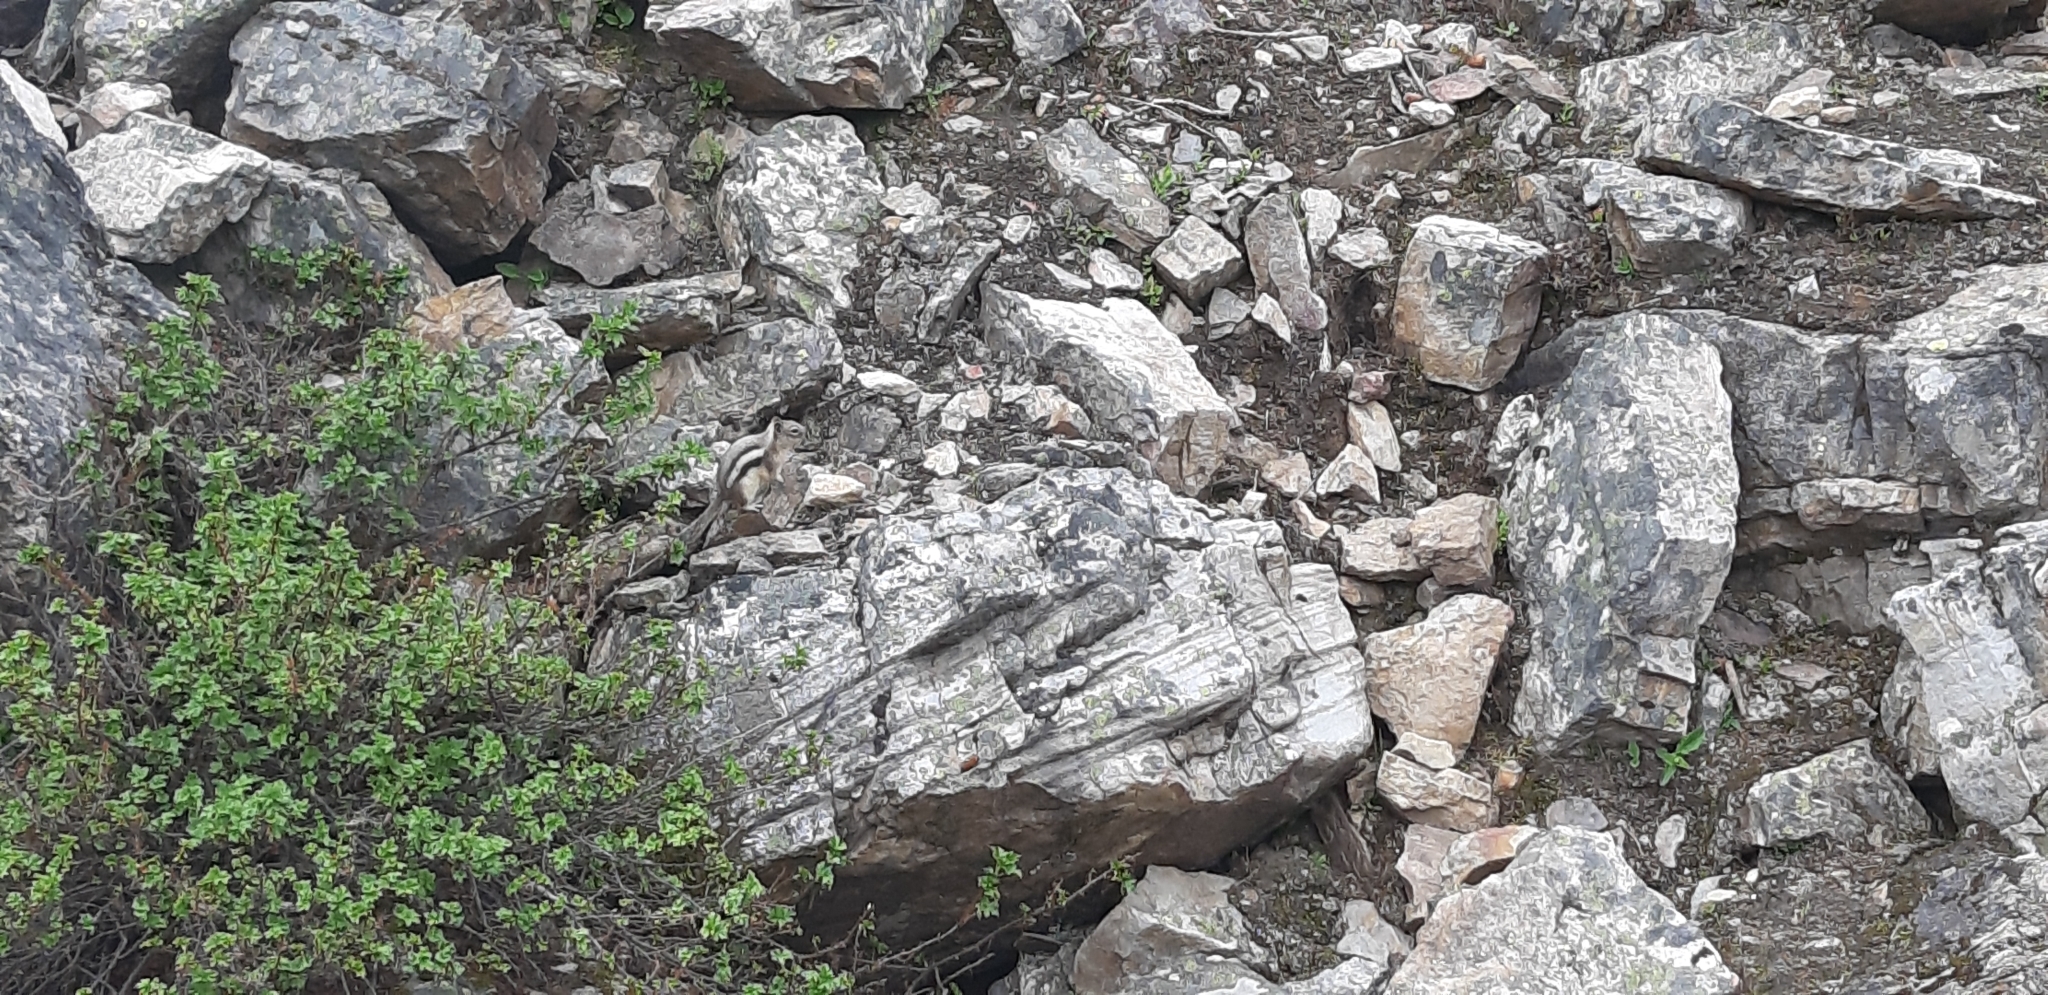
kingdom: Animalia
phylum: Chordata
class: Mammalia
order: Rodentia
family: Sciuridae
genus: Callospermophilus
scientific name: Callospermophilus lateralis
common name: Golden-mantled ground squirrel
